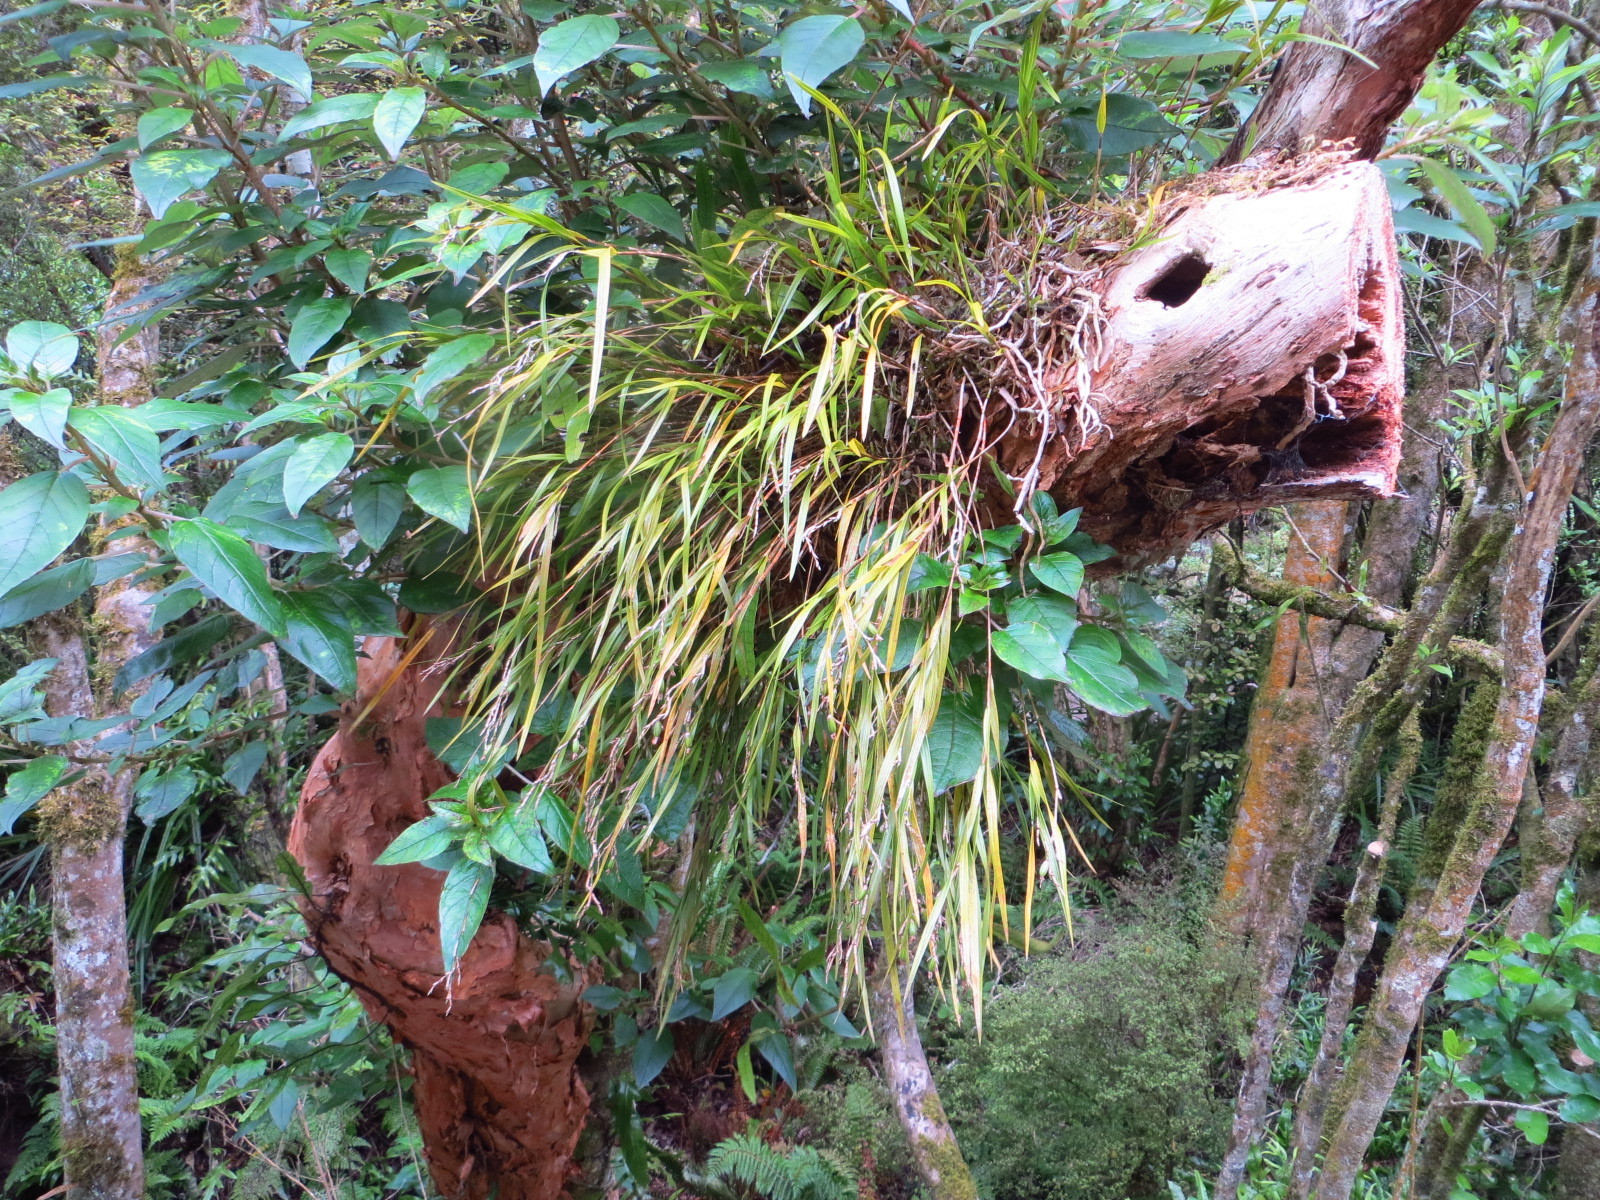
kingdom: Plantae
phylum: Tracheophyta
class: Liliopsida
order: Asparagales
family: Orchidaceae
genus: Earina
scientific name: Earina mucronata
